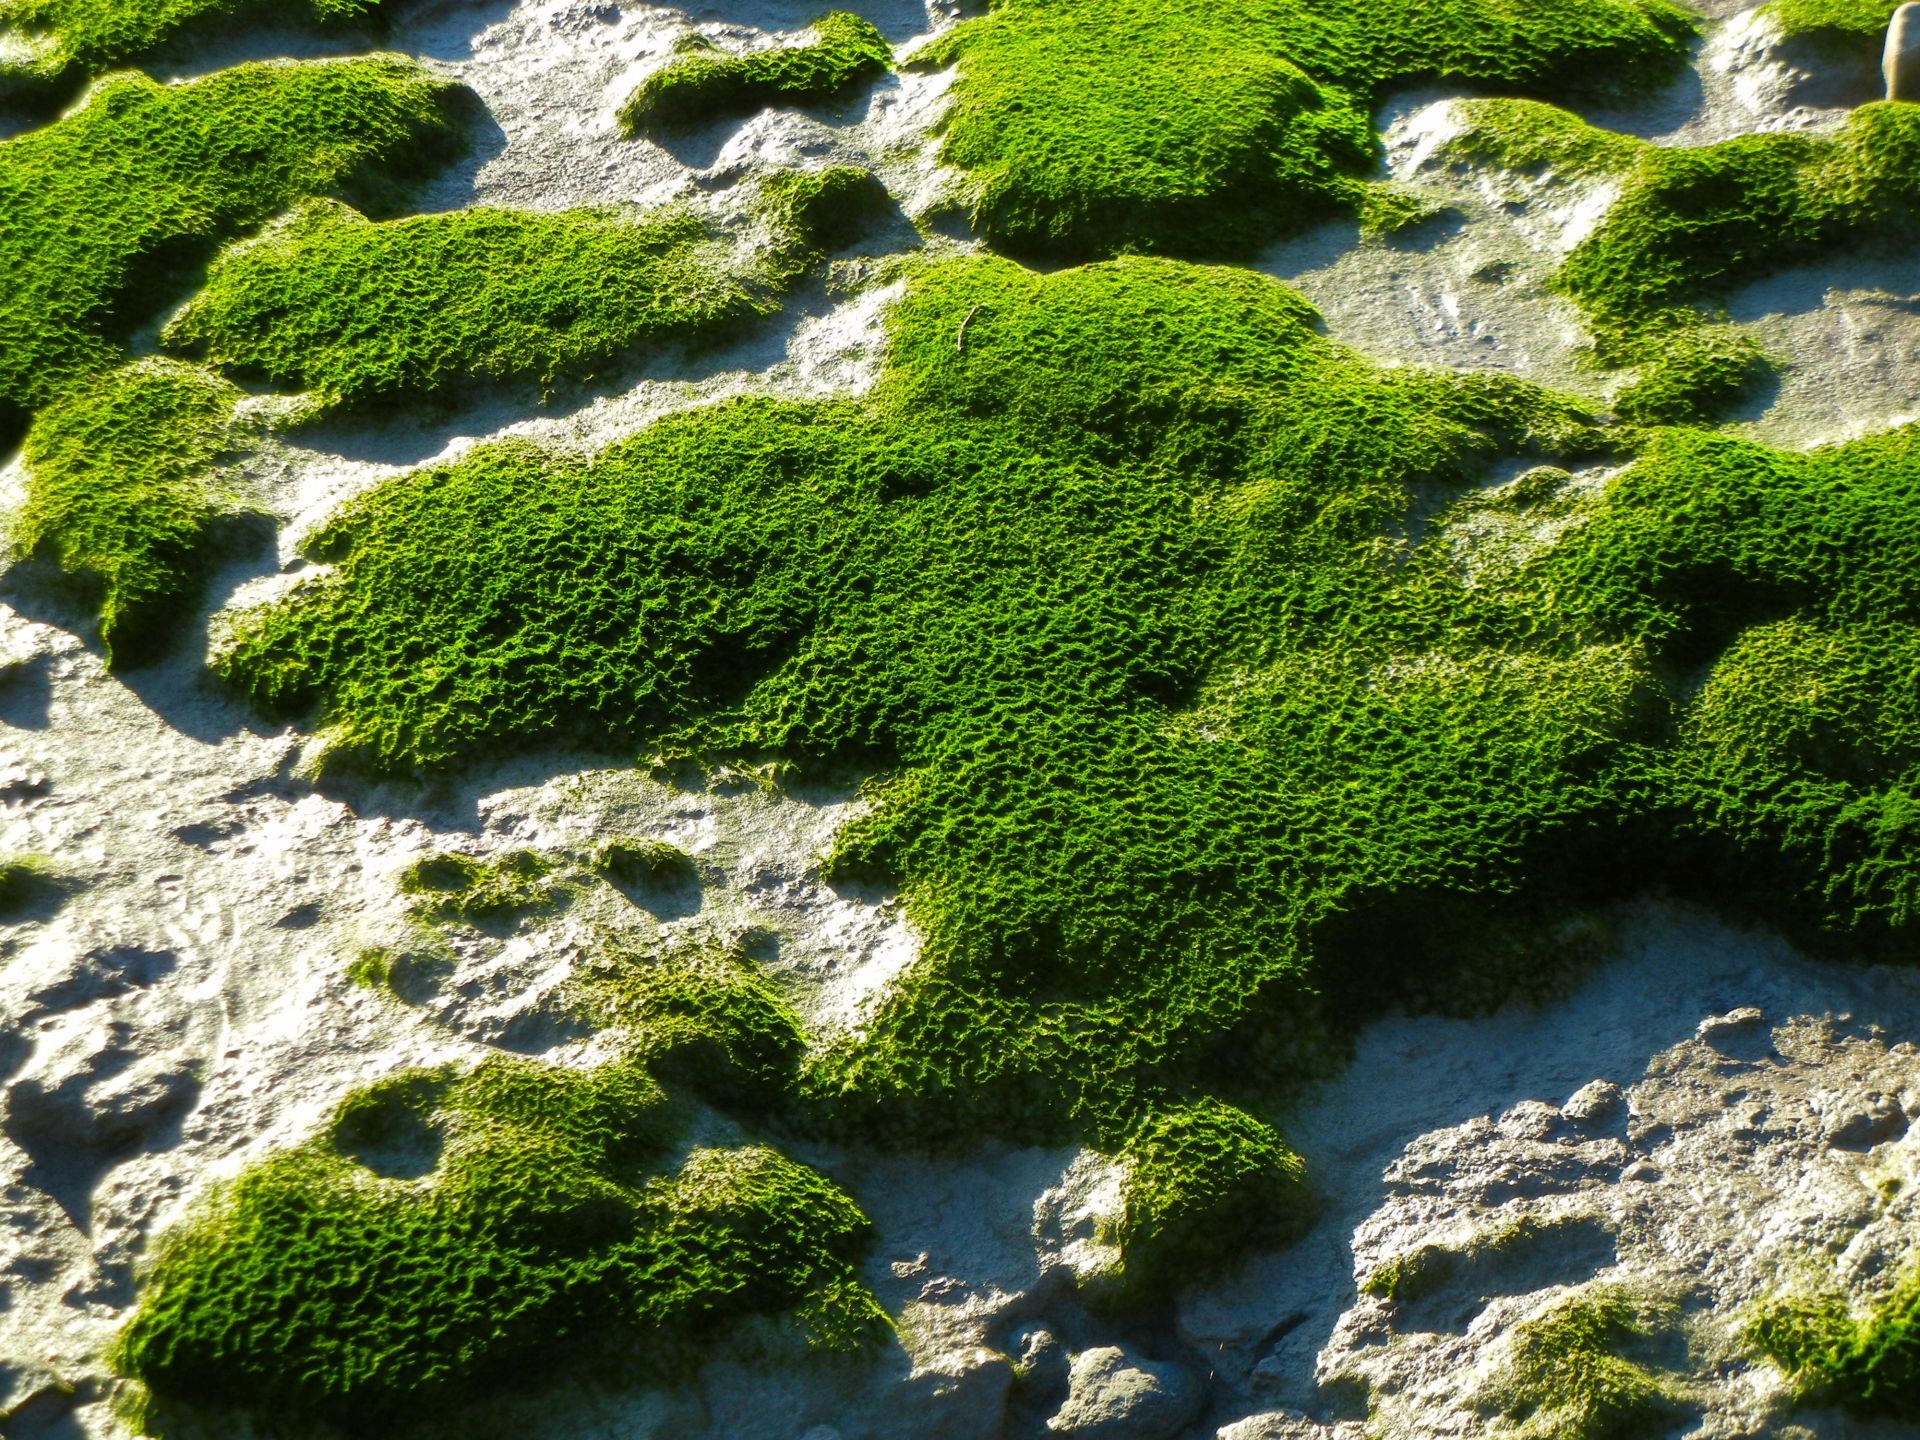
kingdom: Chromista
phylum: Ochrophyta
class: Xanthophyceae
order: Vaucheriales
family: Vaucheriaceae
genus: Vaucheria
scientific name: Vaucheria
